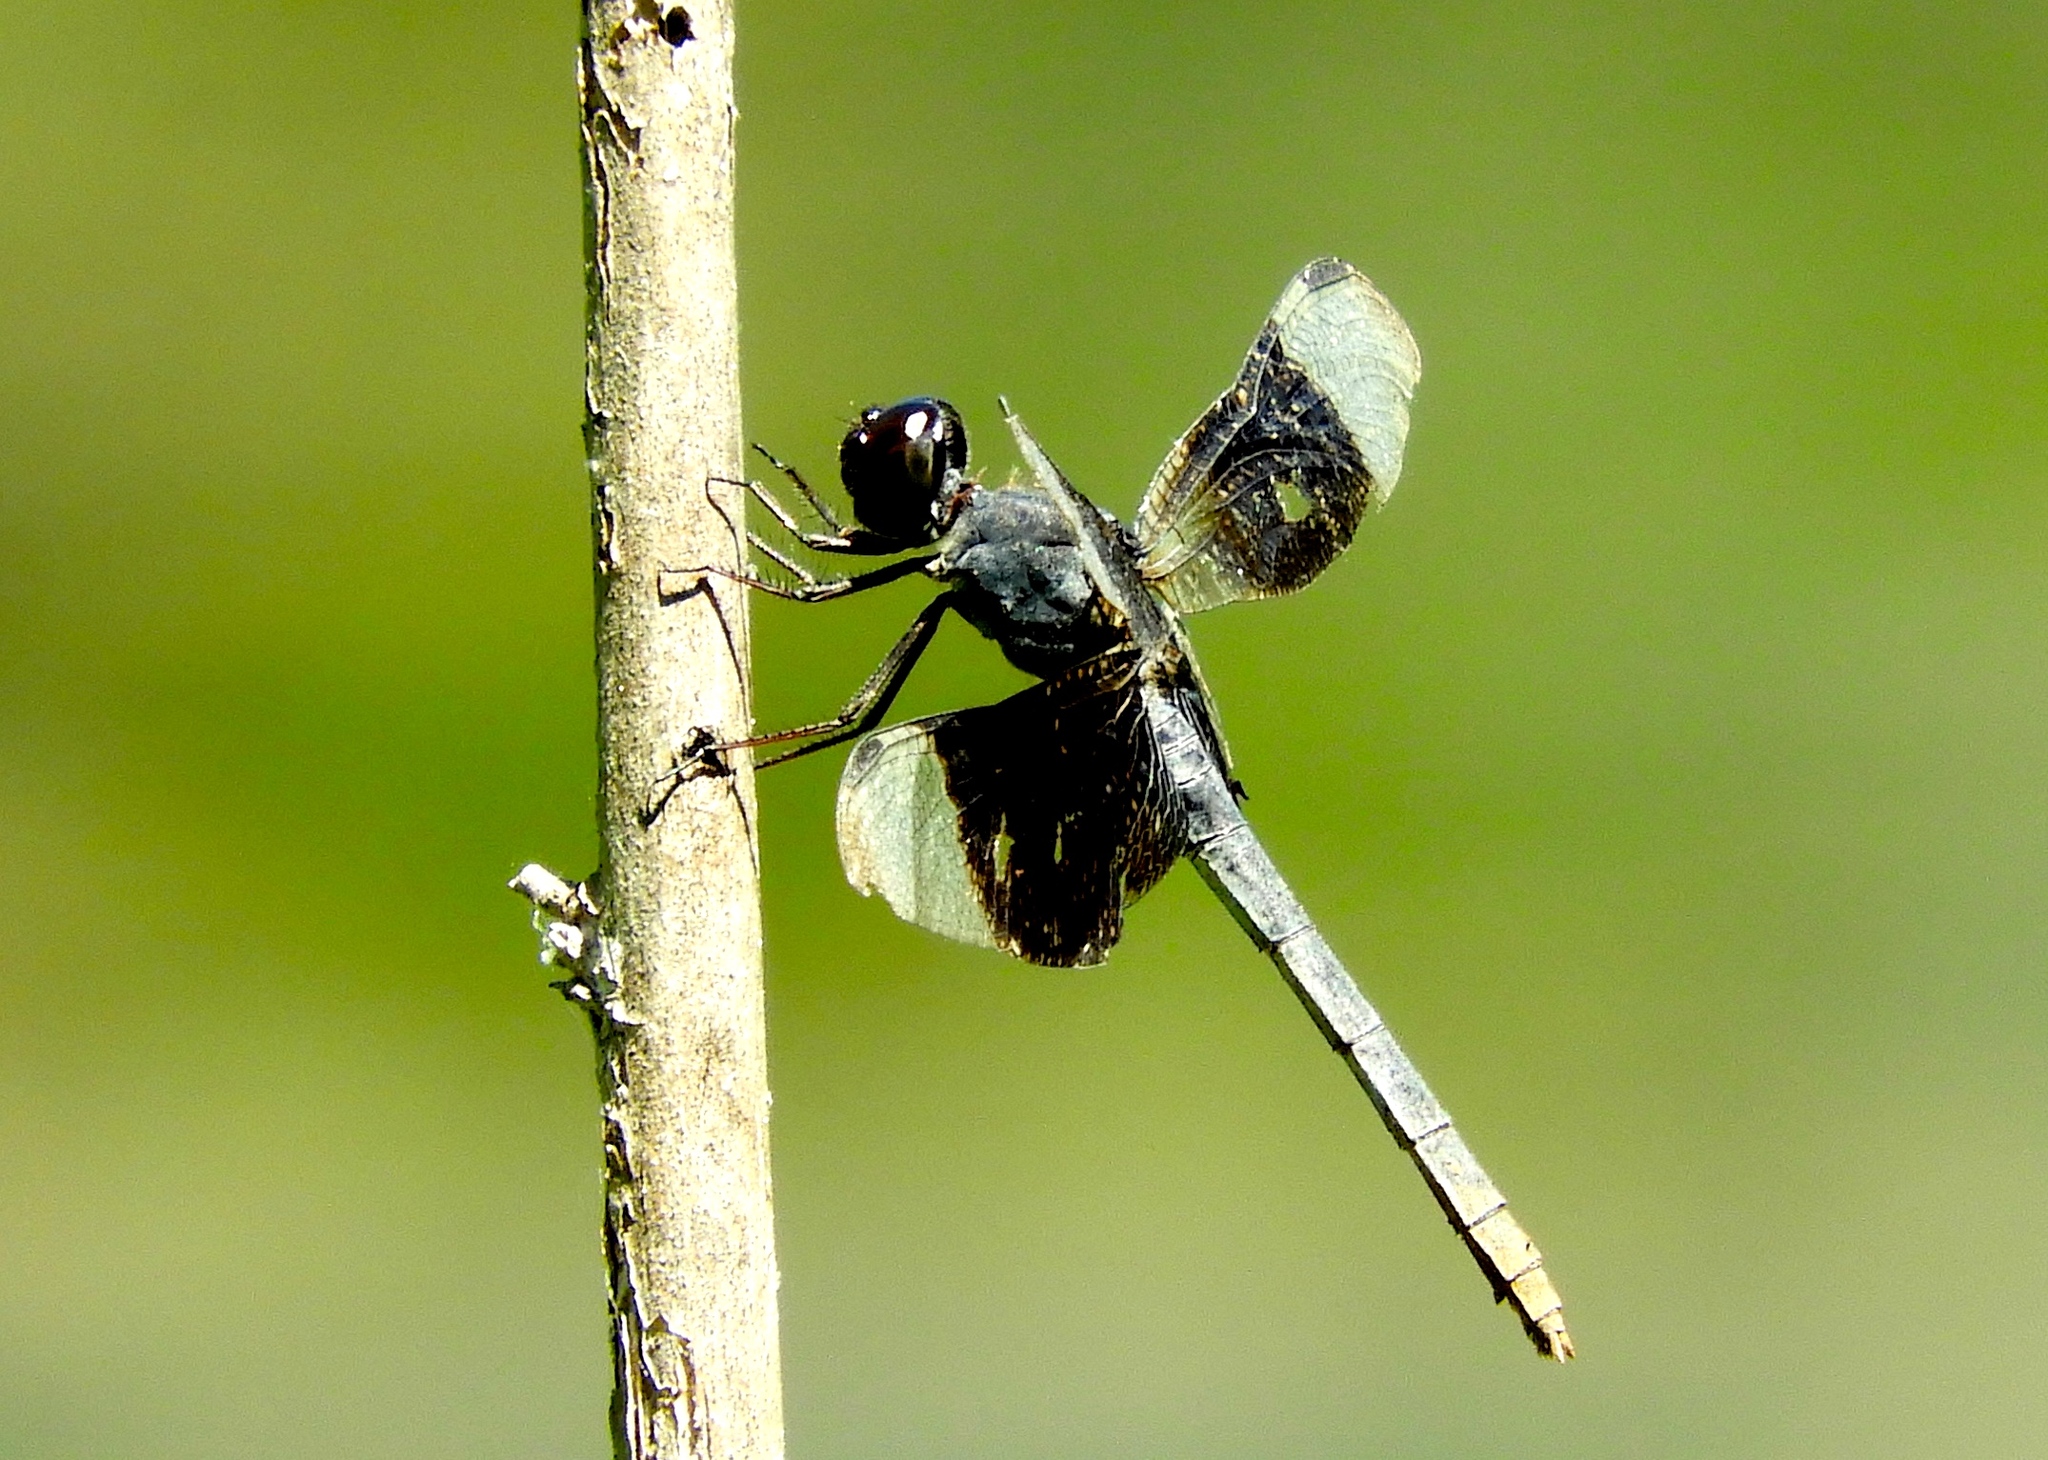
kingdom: Animalia
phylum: Arthropoda
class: Insecta
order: Odonata
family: Libellulidae
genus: Erythrodiplax
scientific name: Erythrodiplax funerea
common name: Black-winged dragonlet
